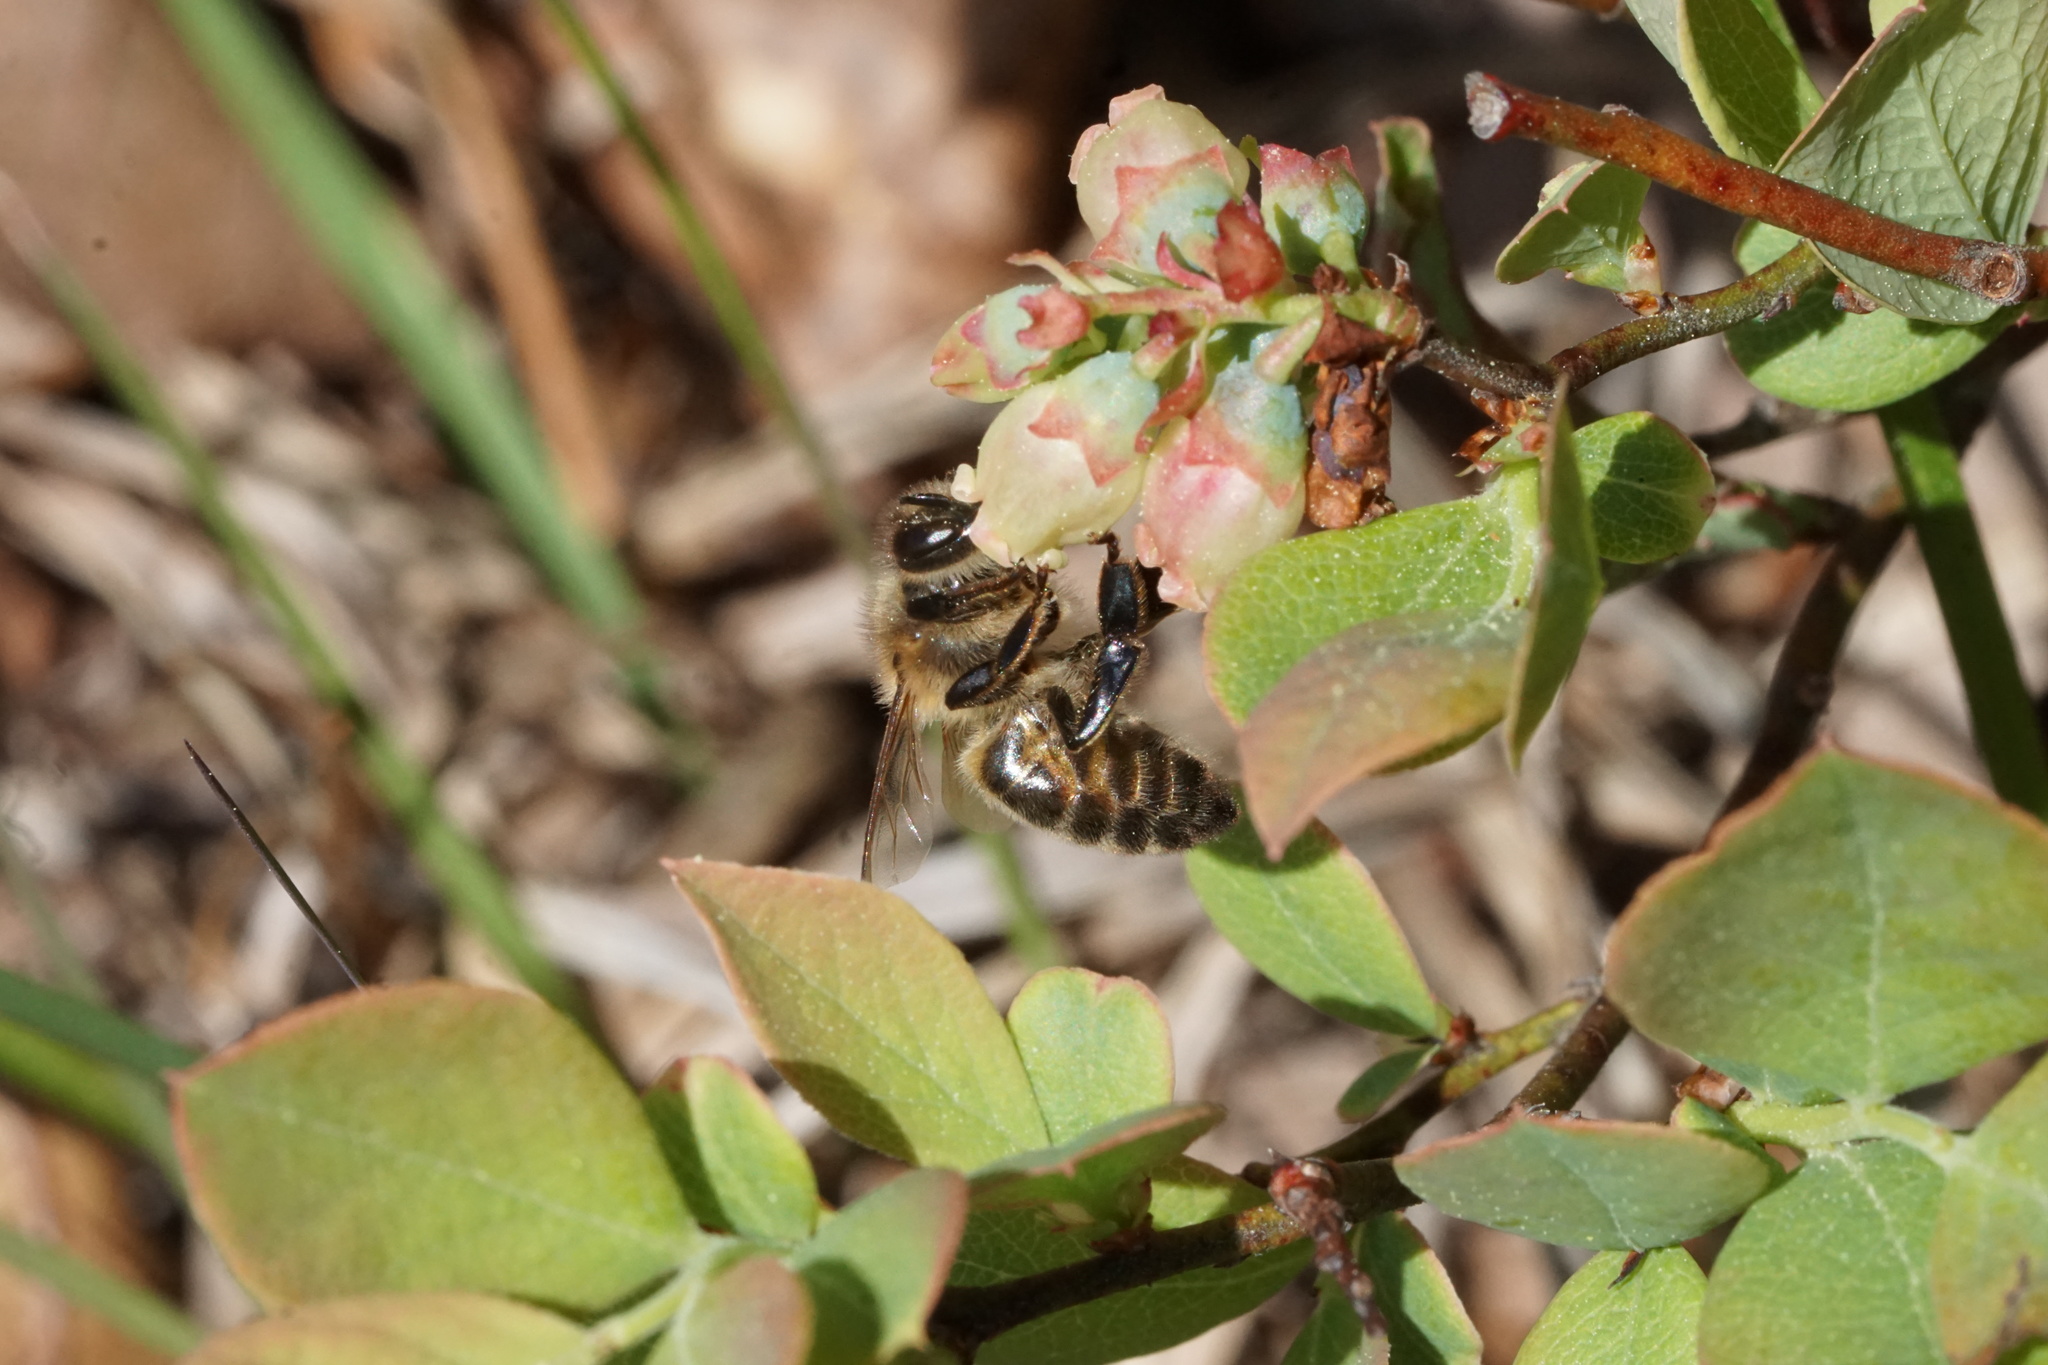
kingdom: Animalia
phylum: Arthropoda
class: Insecta
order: Hymenoptera
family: Apidae
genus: Apis
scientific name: Apis mellifera
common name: Honey bee
